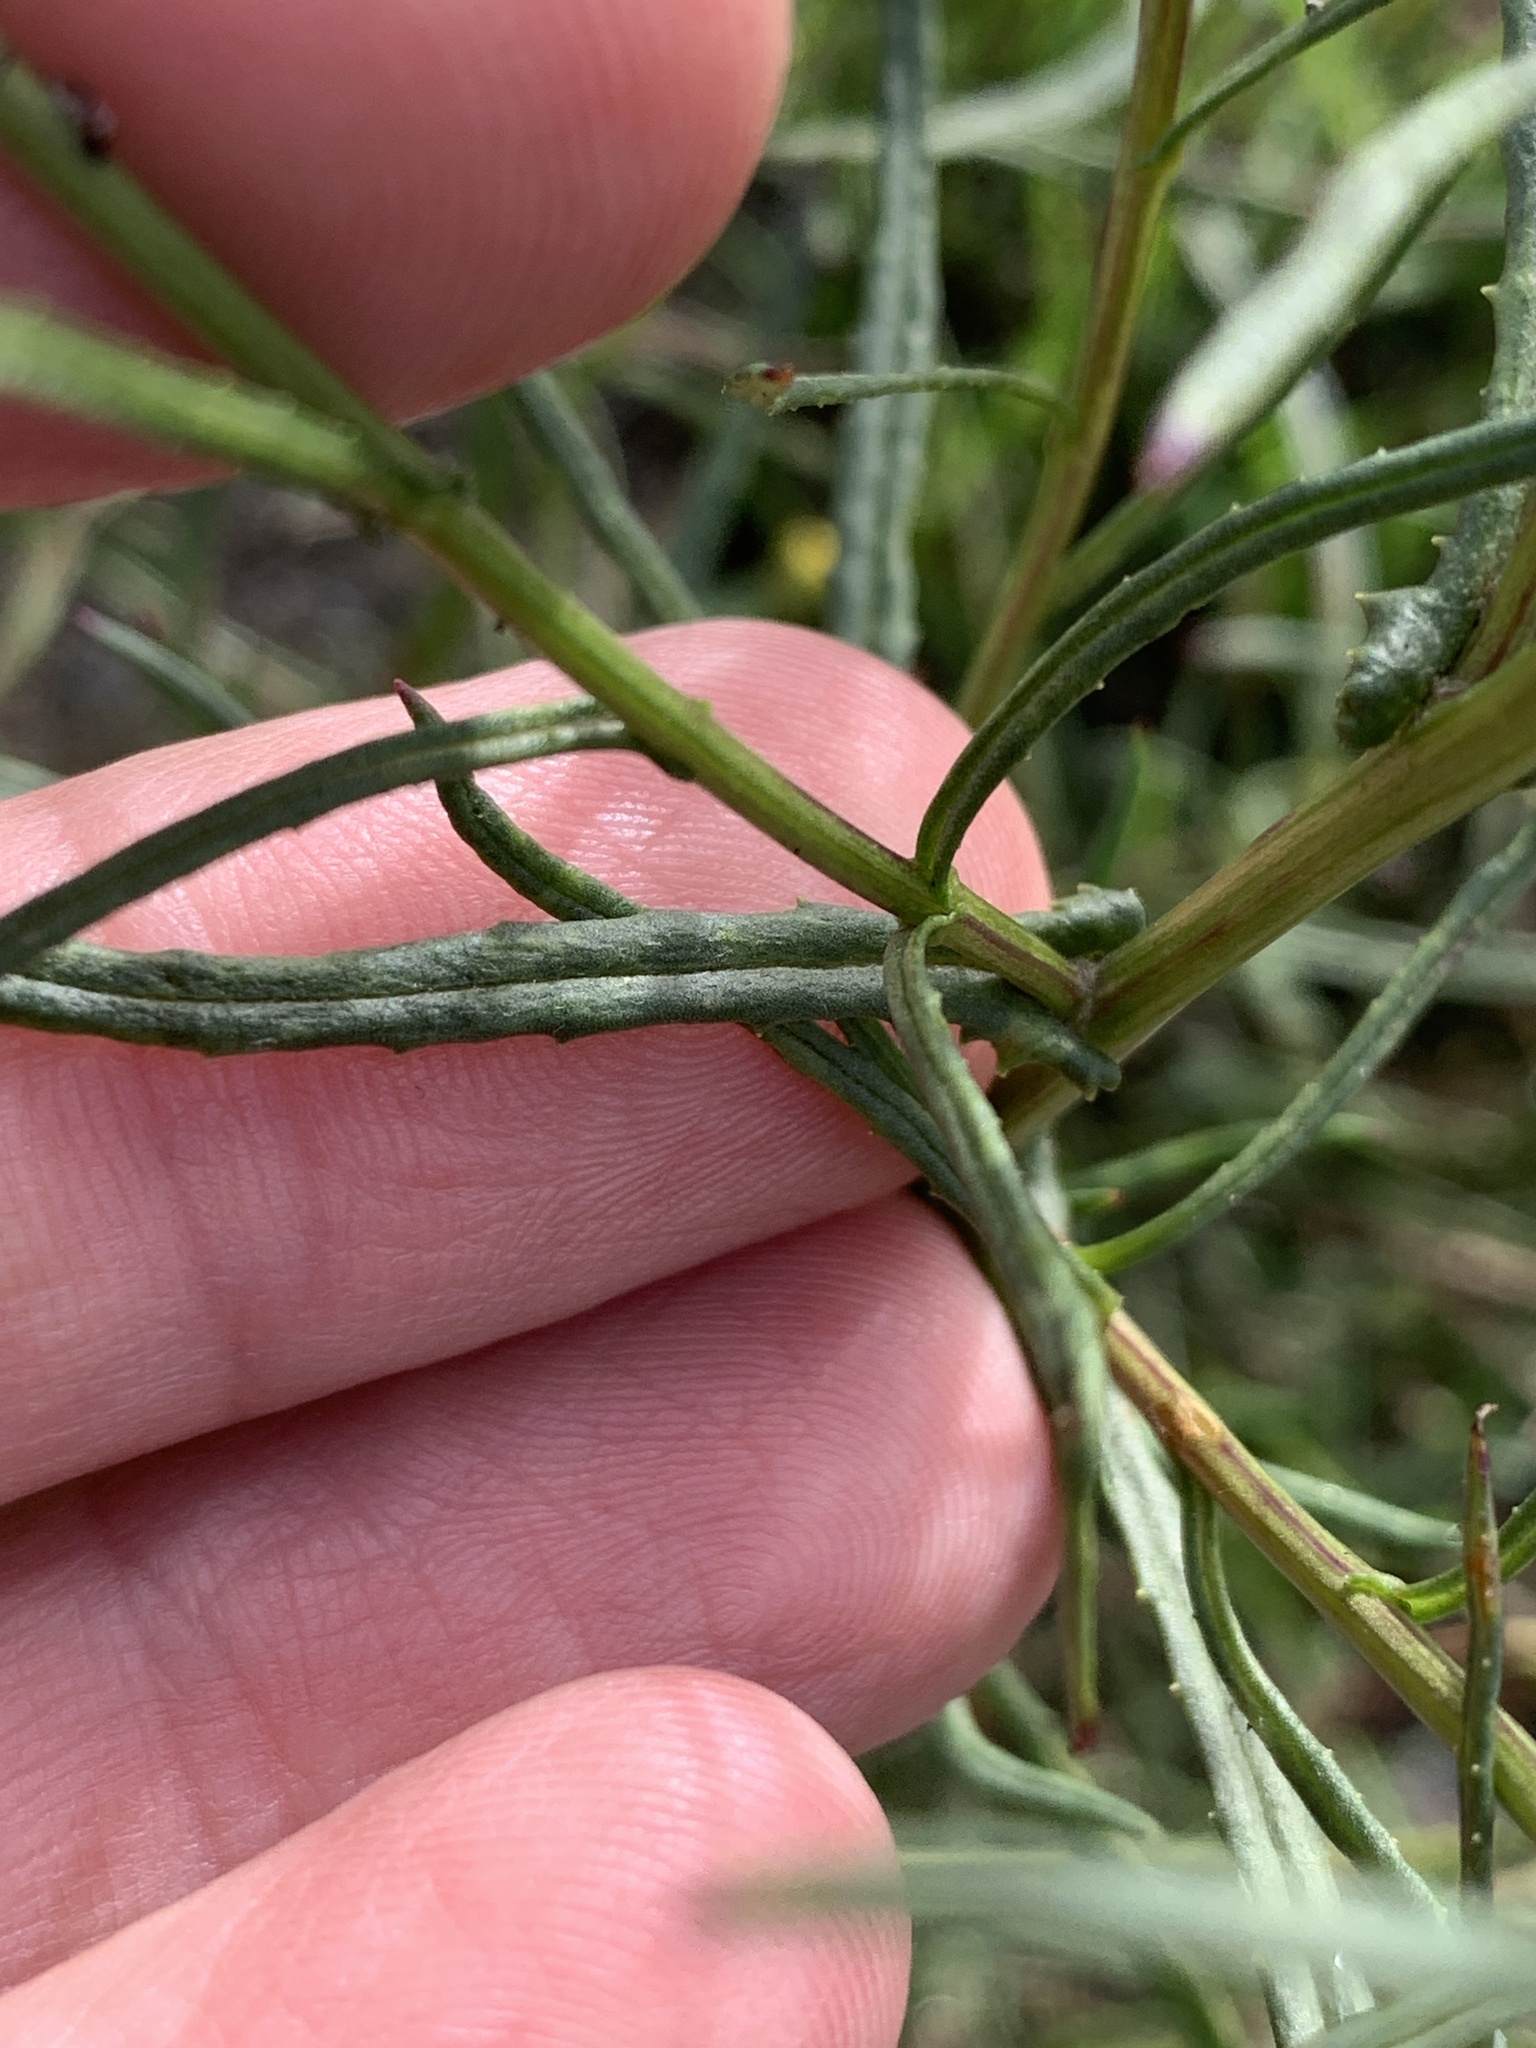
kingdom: Plantae
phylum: Tracheophyta
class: Magnoliopsida
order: Asterales
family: Asteraceae
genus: Senecio
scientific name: Senecio inaequidens
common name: Narrow-leaved ragwort
